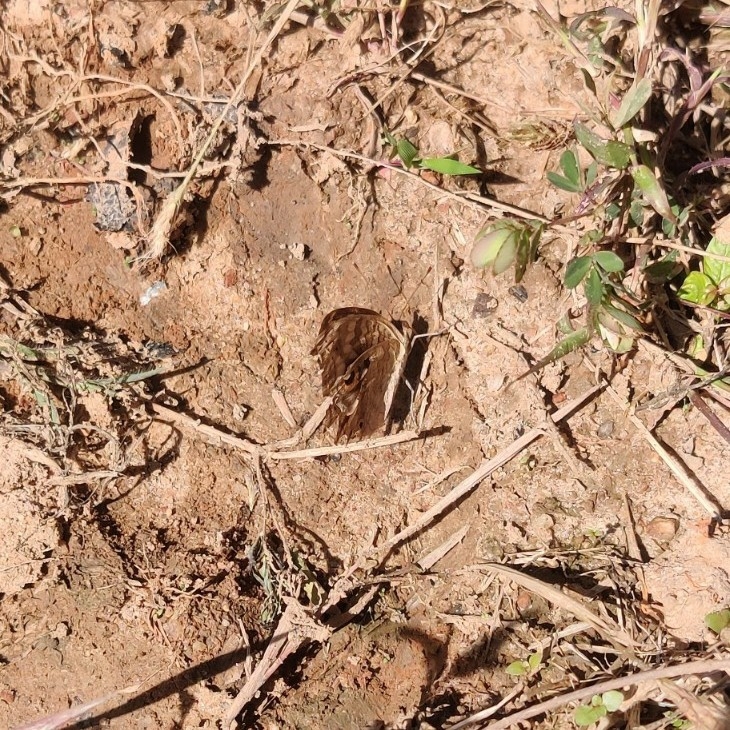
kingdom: Animalia
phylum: Arthropoda
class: Insecta
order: Lepidoptera
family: Nymphalidae
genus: Junonia
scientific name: Junonia lemonias
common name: Lemon pansy
